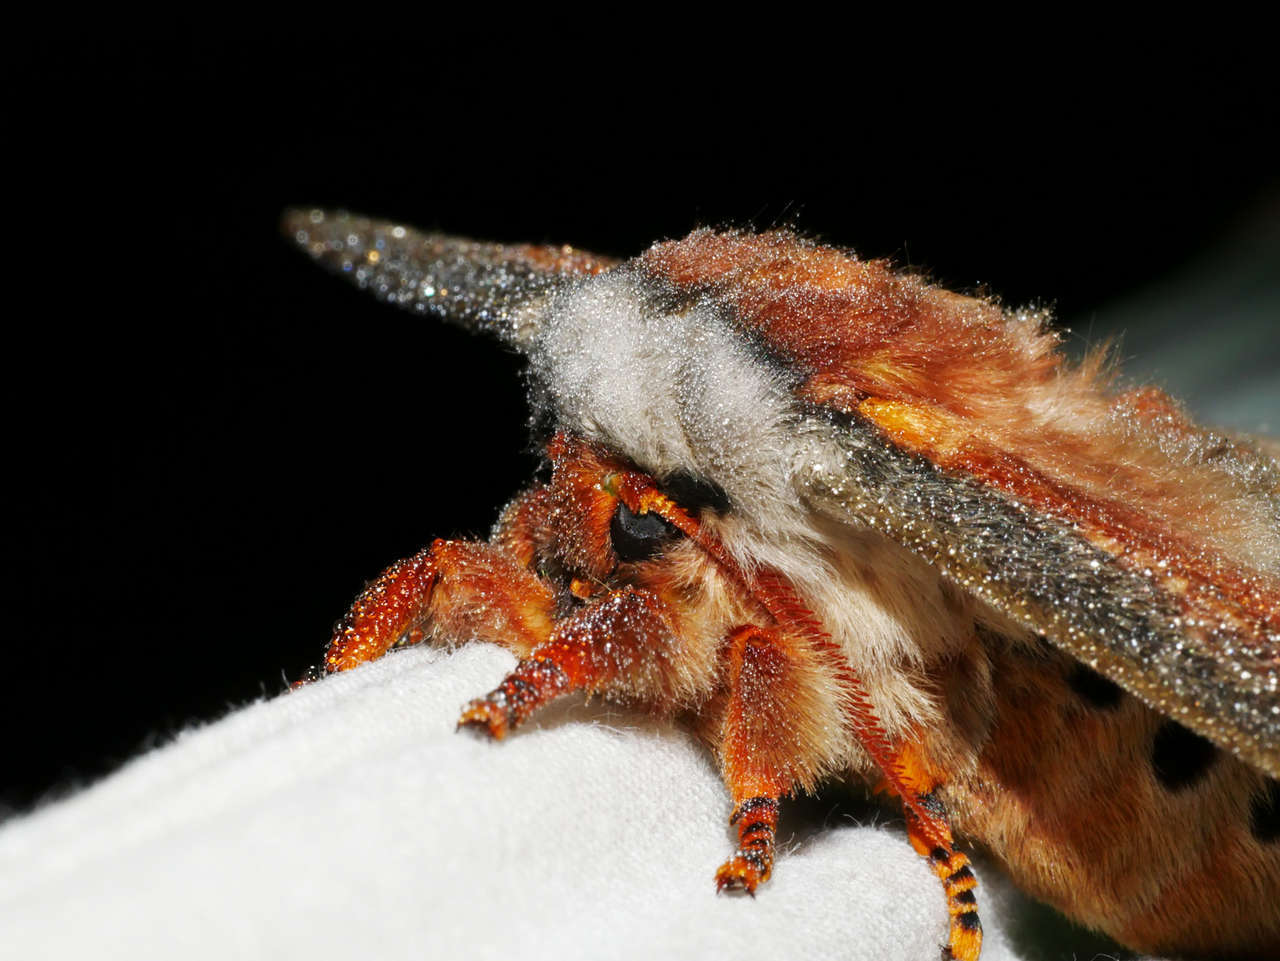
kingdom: Animalia
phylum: Arthropoda
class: Insecta
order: Lepidoptera
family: Saturniidae
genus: Opodiphthera
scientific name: Opodiphthera
